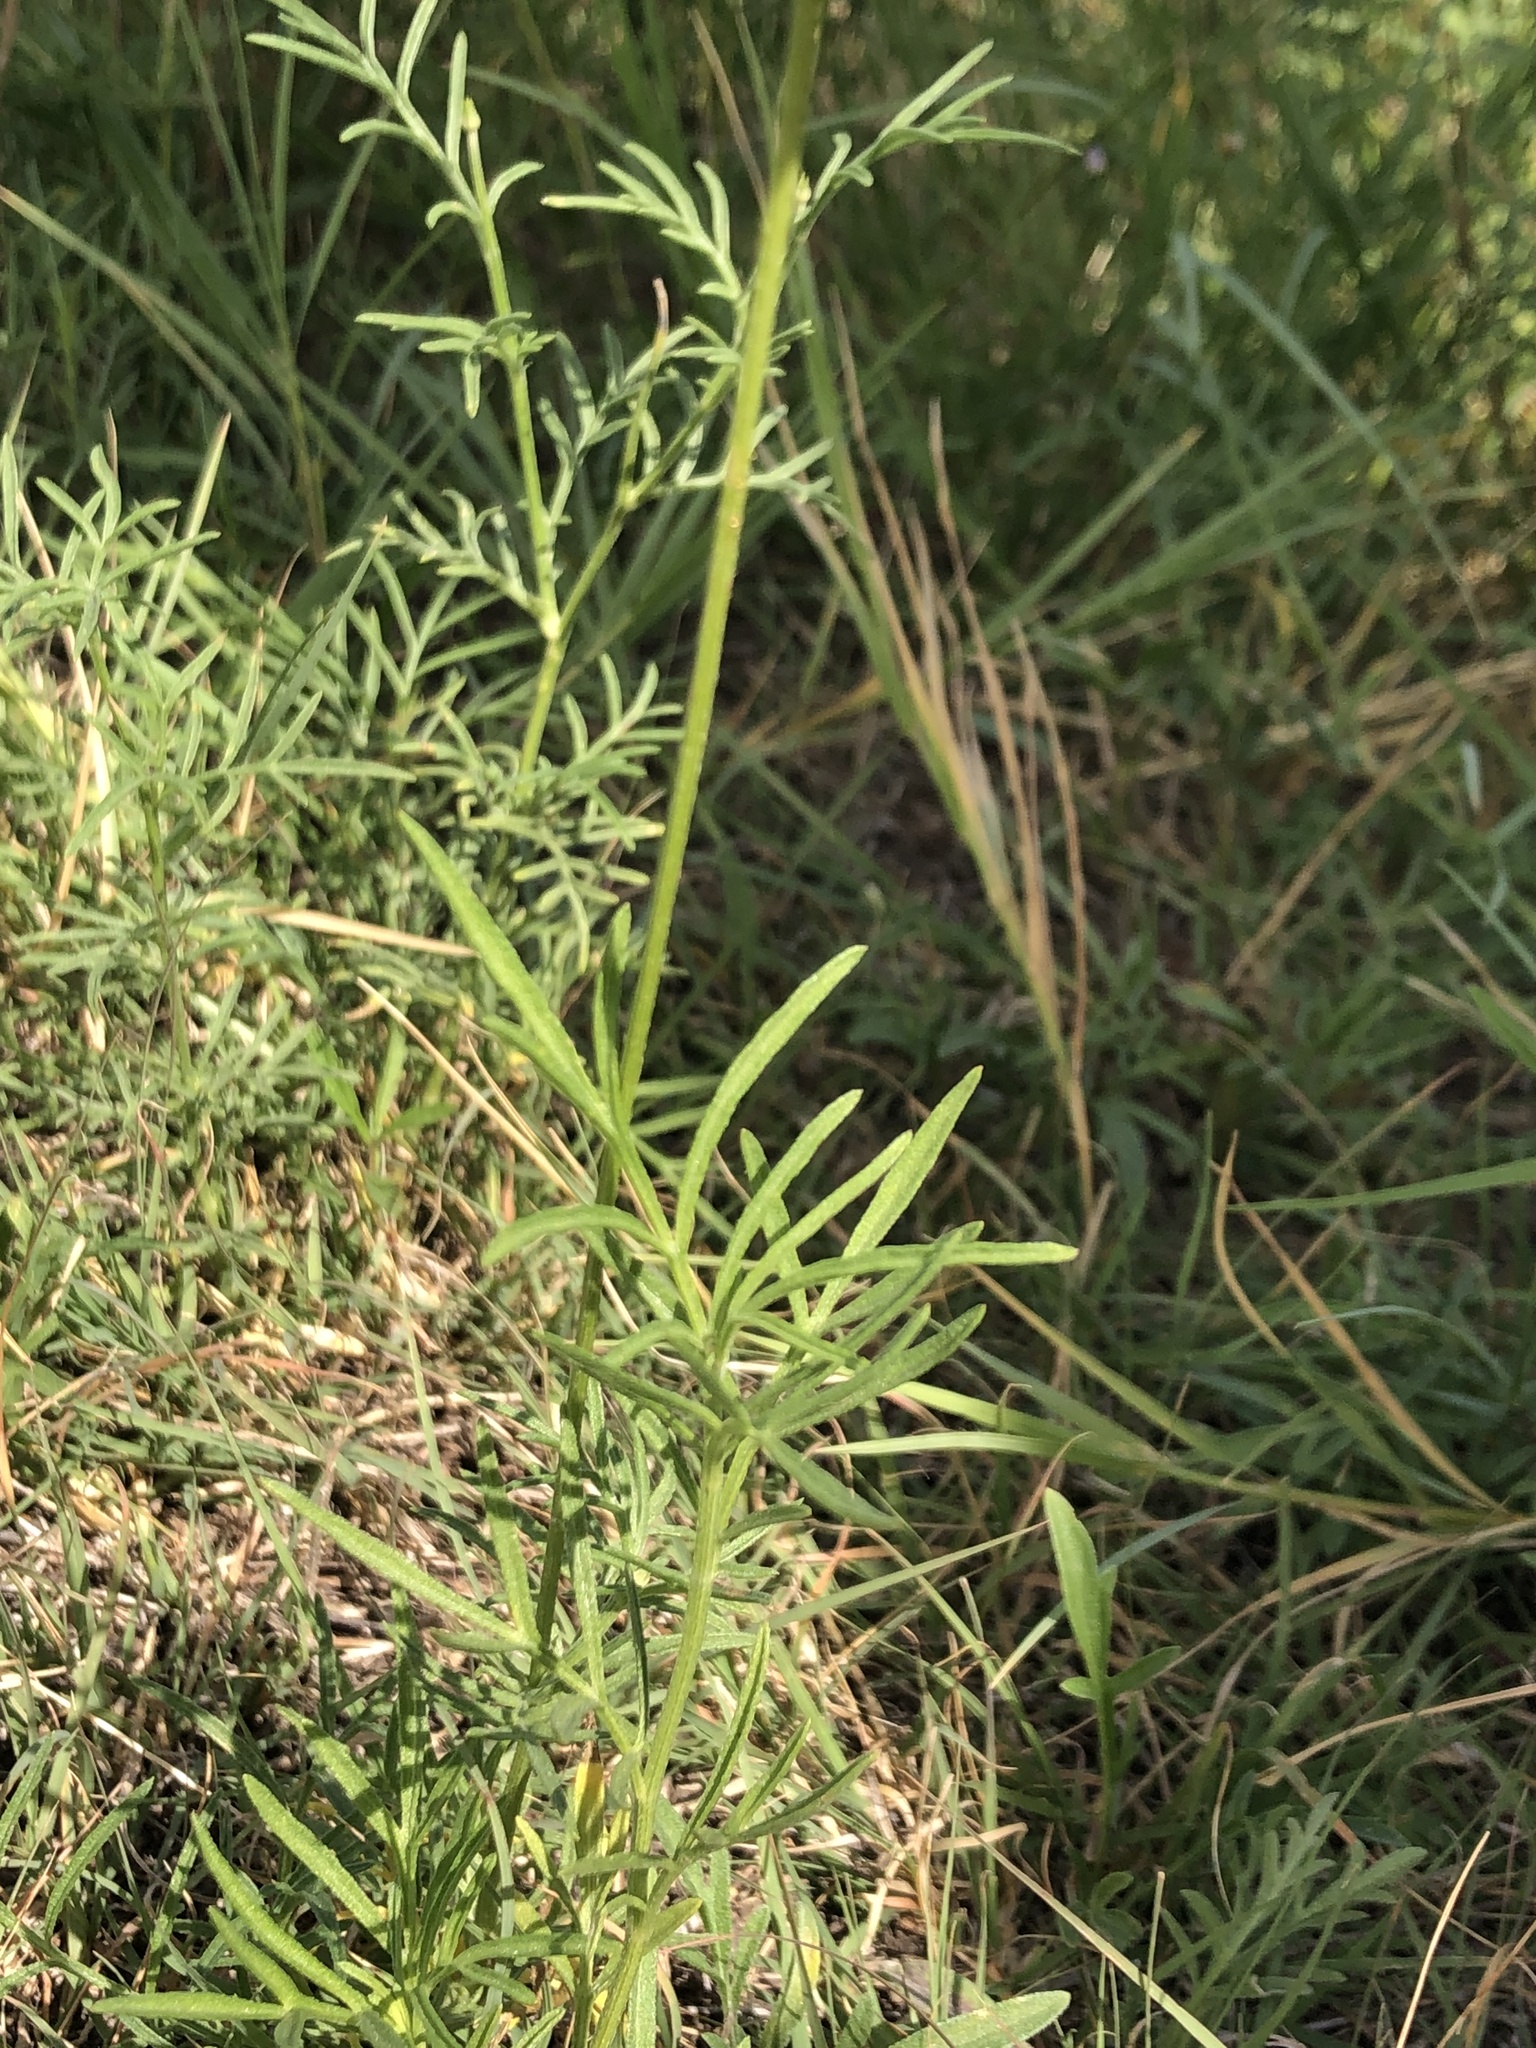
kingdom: Plantae
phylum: Tracheophyta
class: Magnoliopsida
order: Asterales
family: Asteraceae
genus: Ratibida
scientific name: Ratibida columnifera
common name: Prairie coneflower
